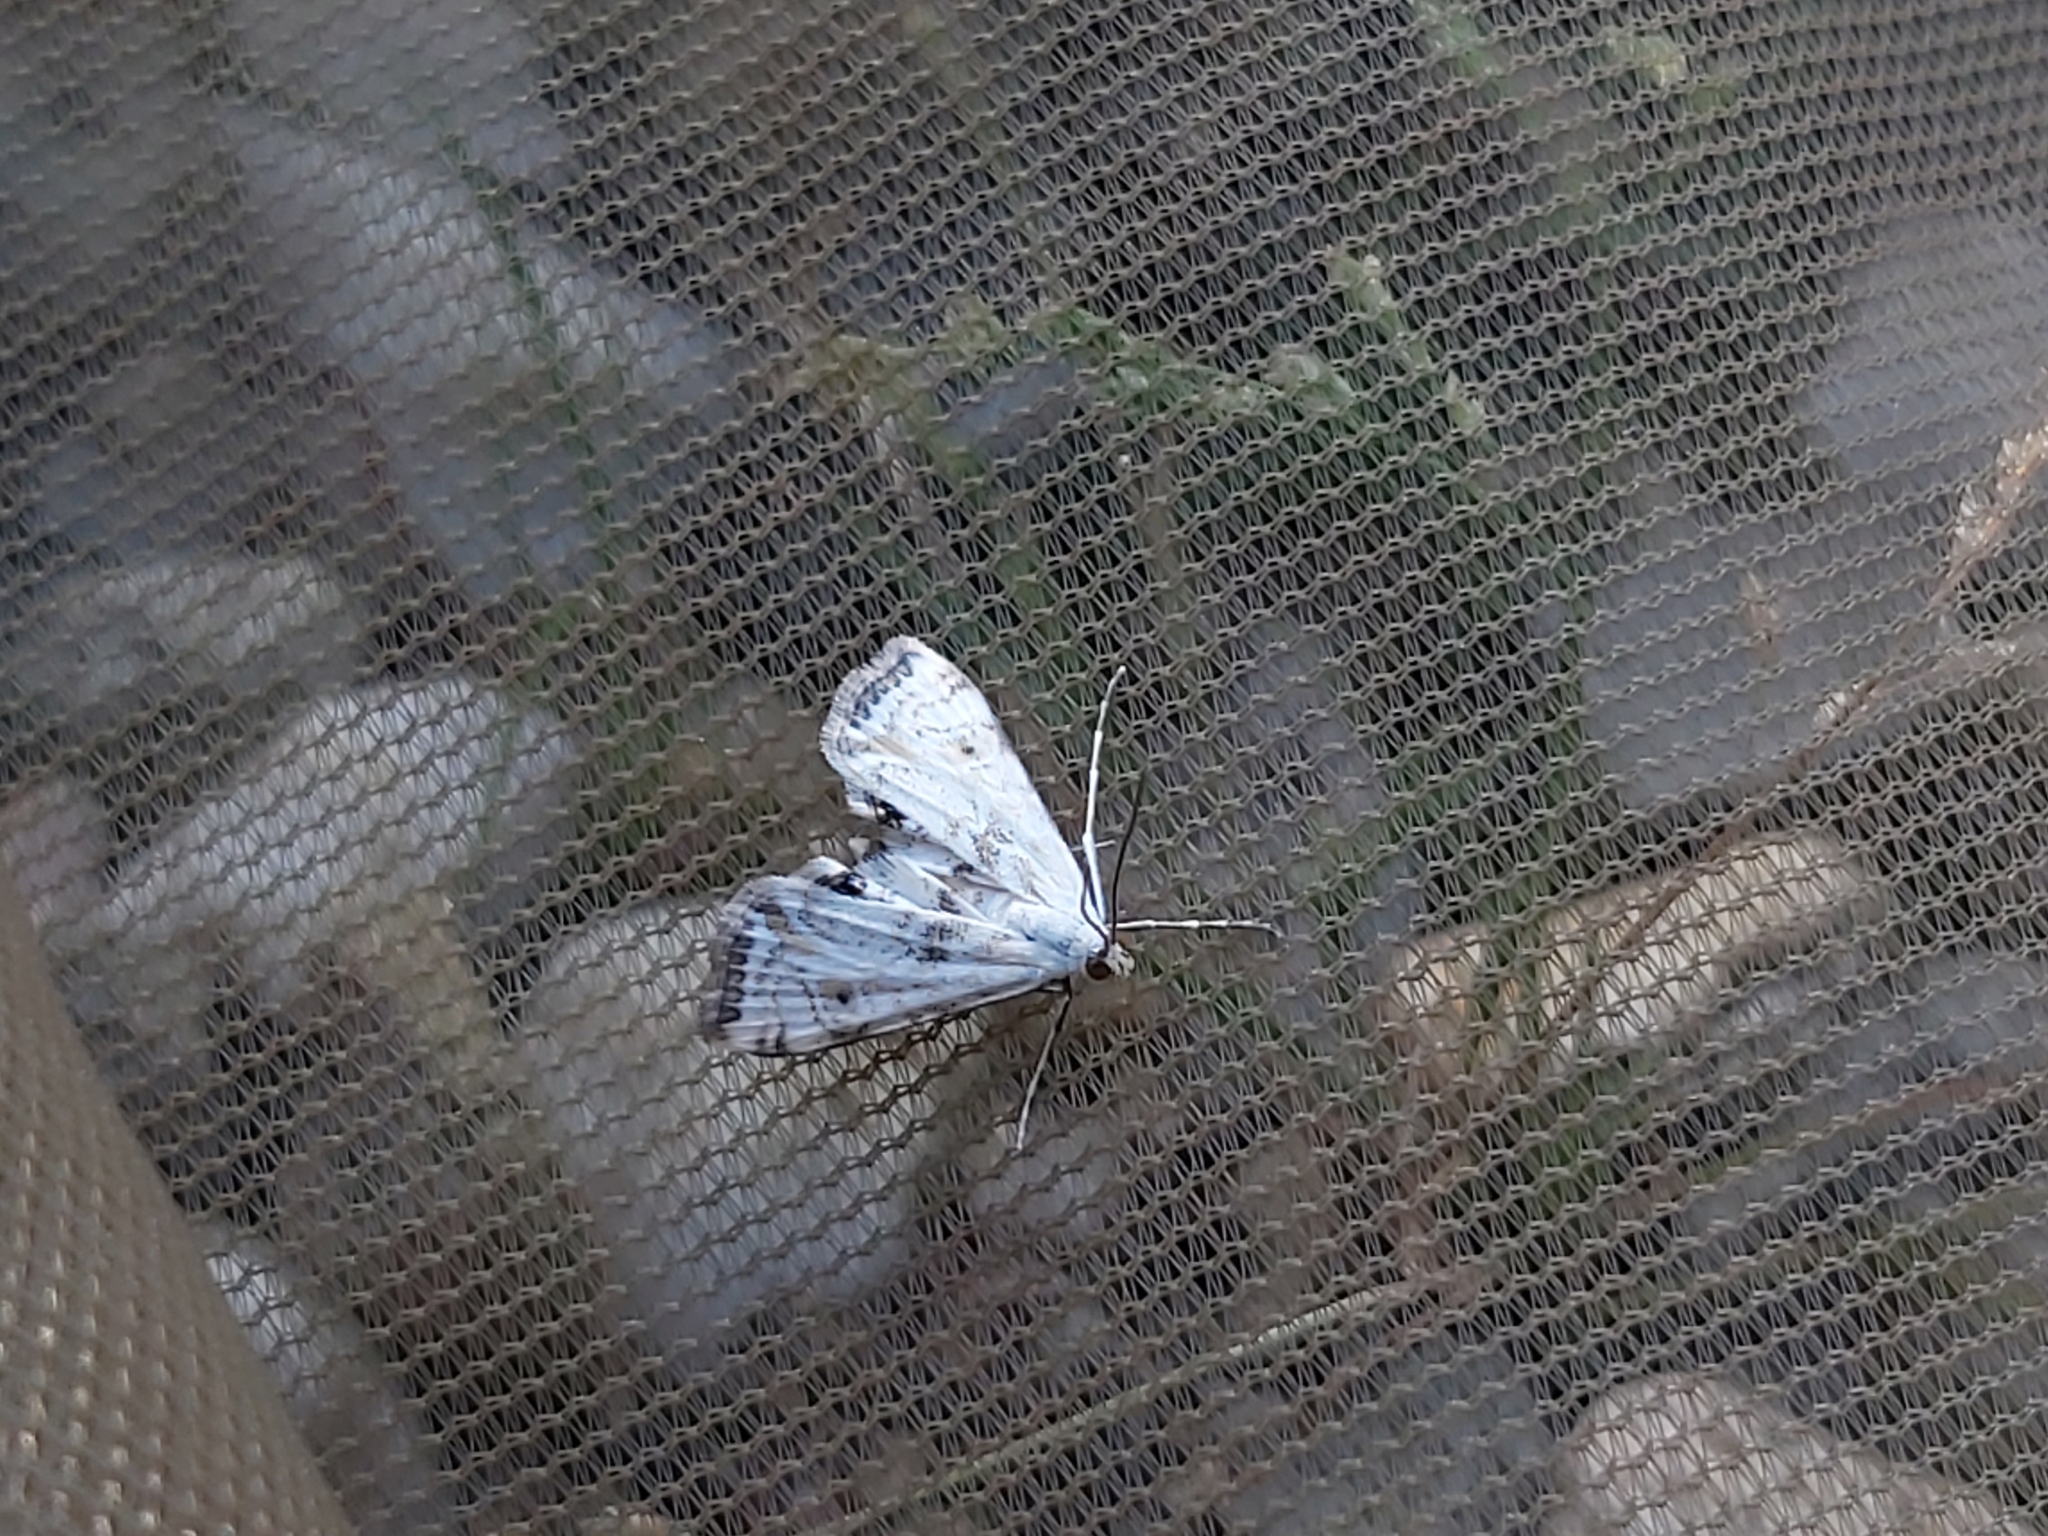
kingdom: Animalia
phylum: Arthropoda
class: Insecta
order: Lepidoptera
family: Crambidae
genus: Cataclysta
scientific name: Cataclysta lemnata
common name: Small china-mark
